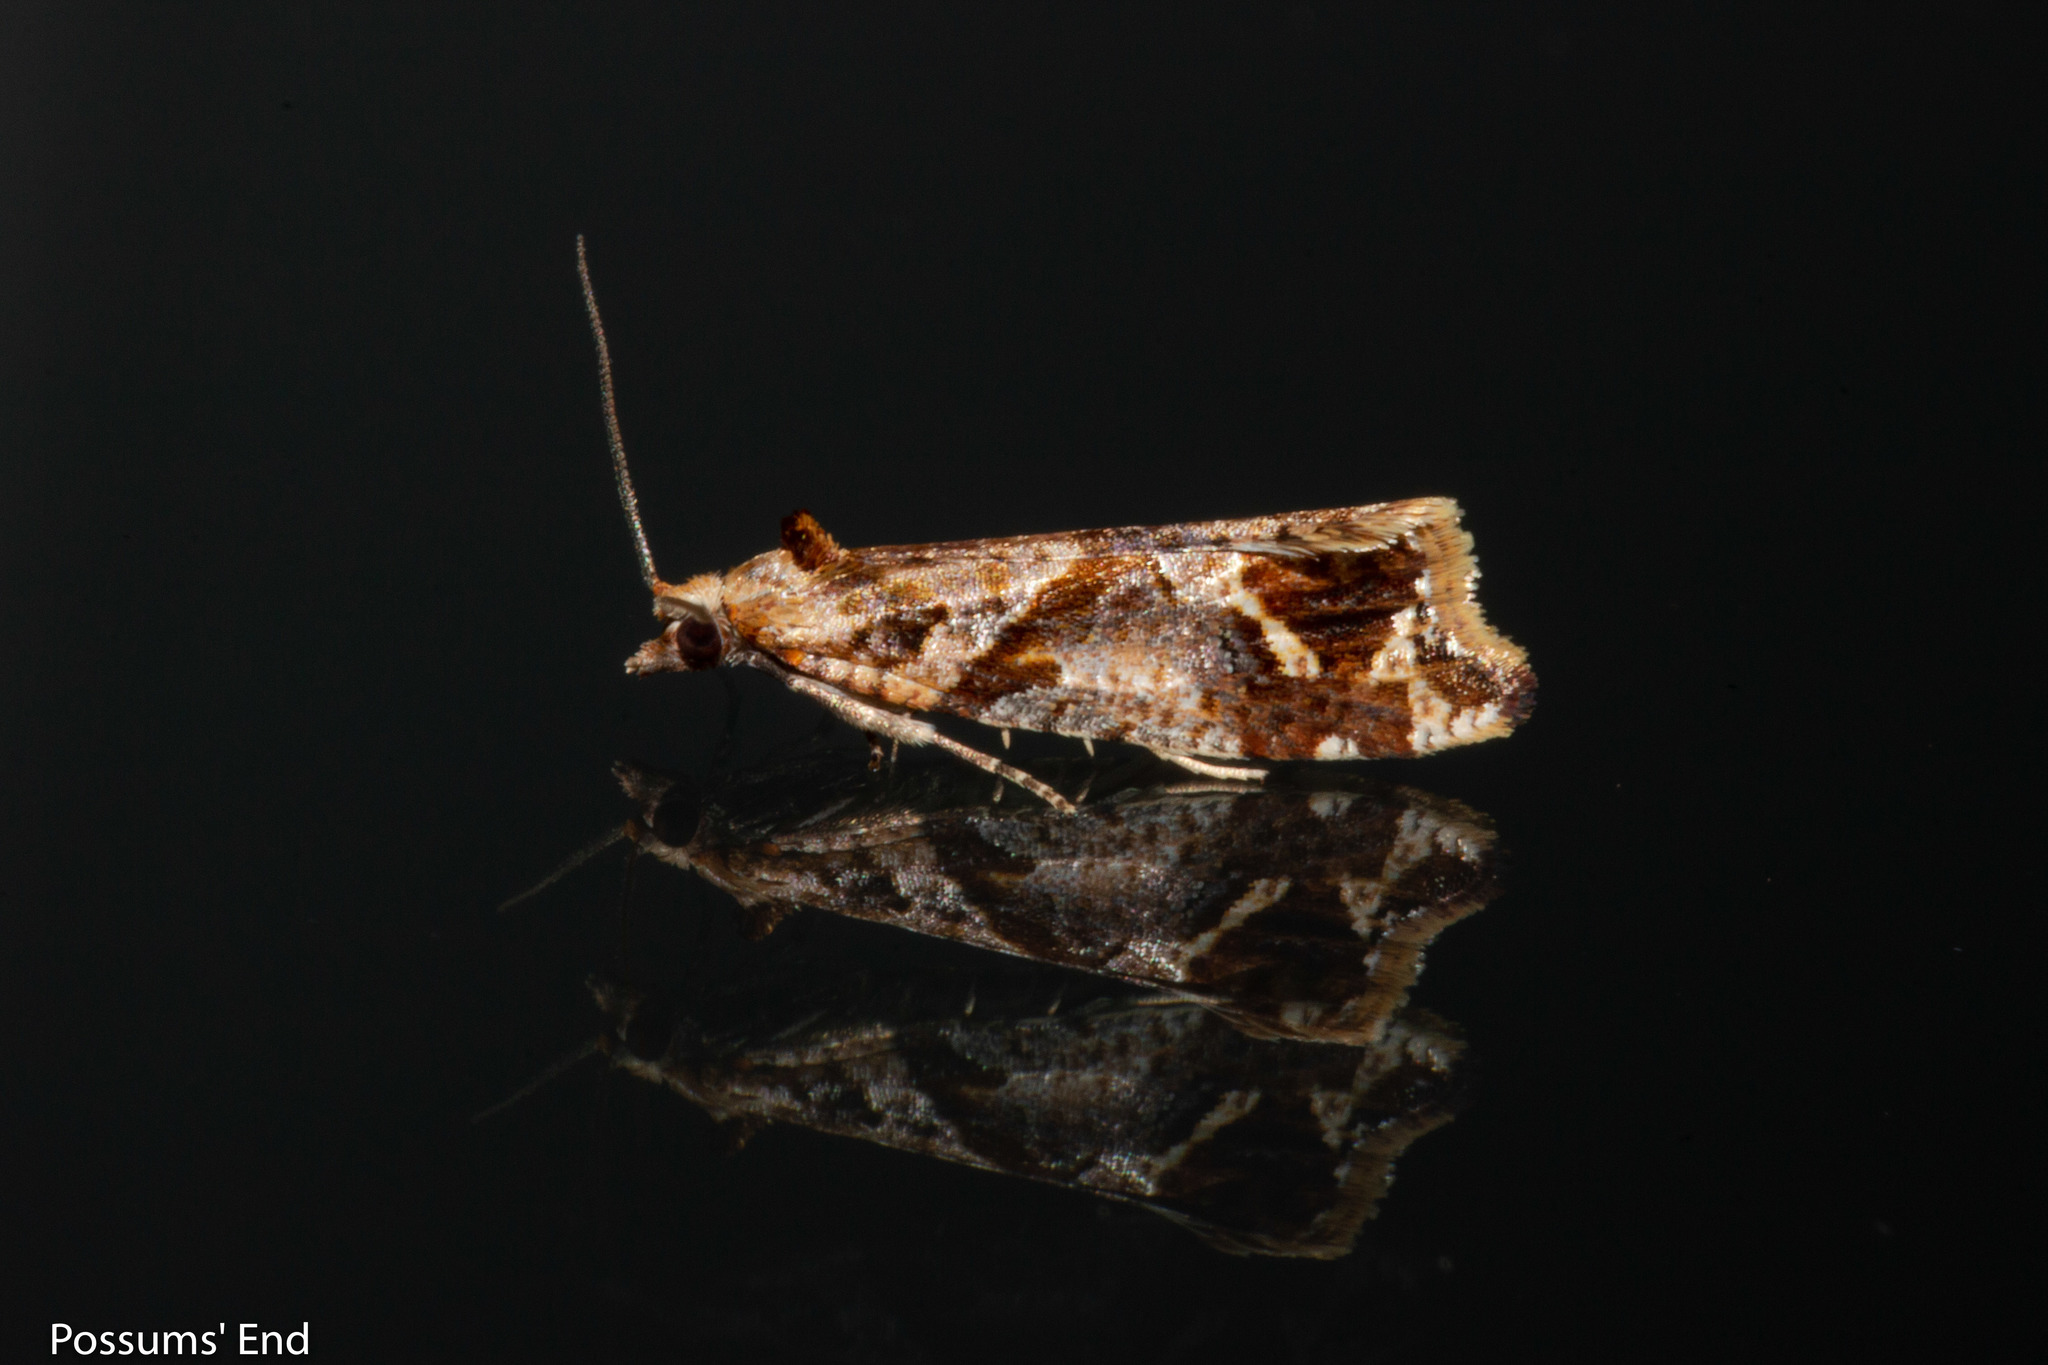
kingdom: Animalia
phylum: Arthropoda
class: Insecta
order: Lepidoptera
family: Tortricidae
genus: Pyrgotis
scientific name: Pyrgotis plagiatana
